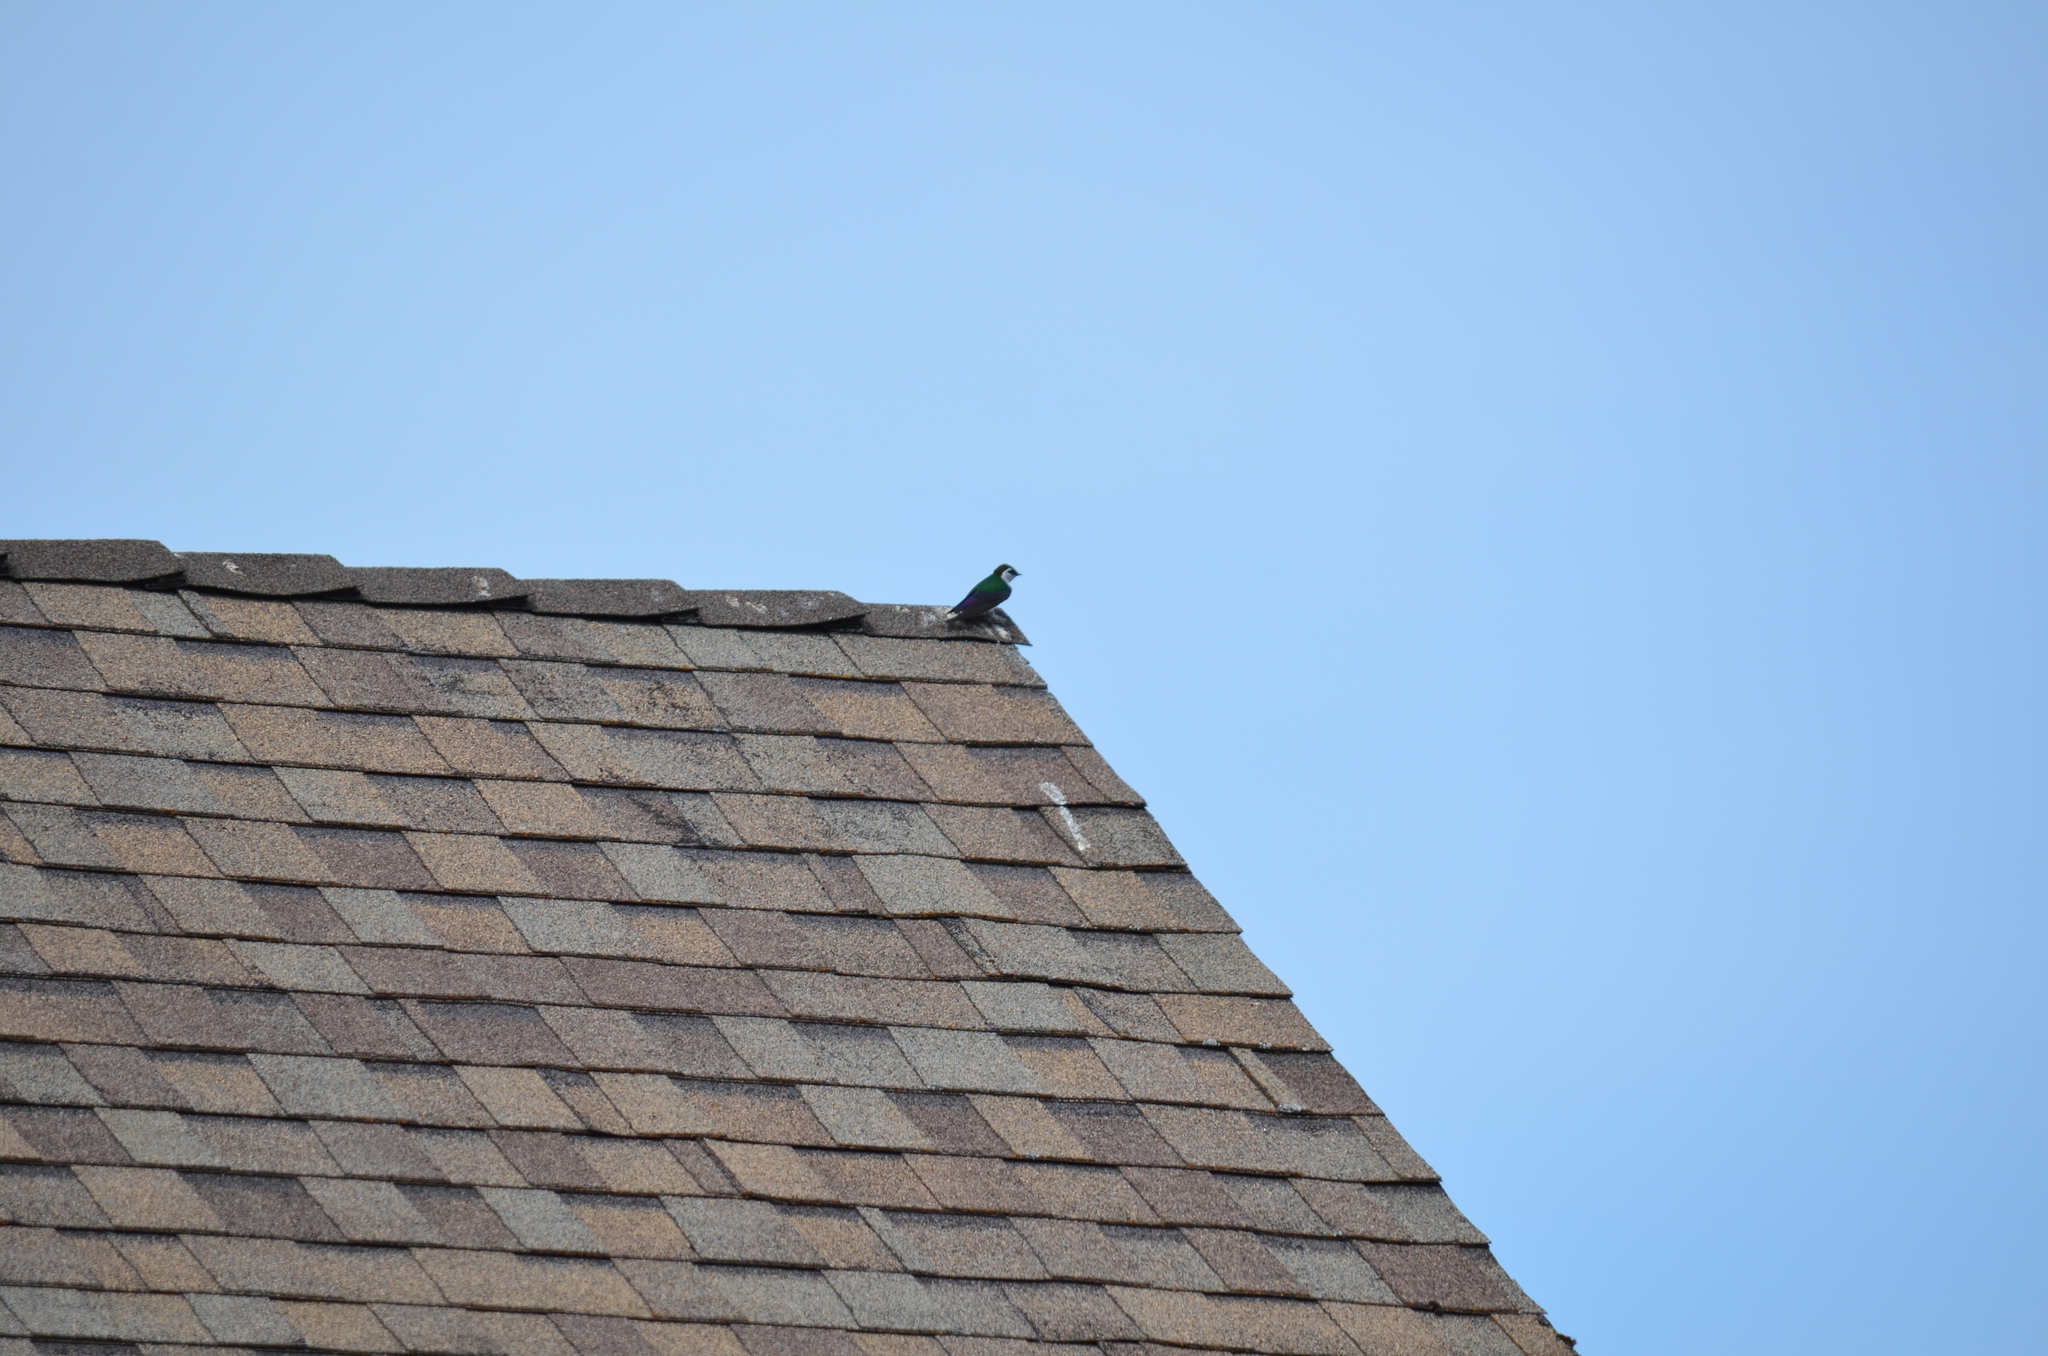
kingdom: Animalia
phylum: Chordata
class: Aves
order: Passeriformes
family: Hirundinidae
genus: Tachycineta
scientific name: Tachycineta thalassina
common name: Violet-green swallow
